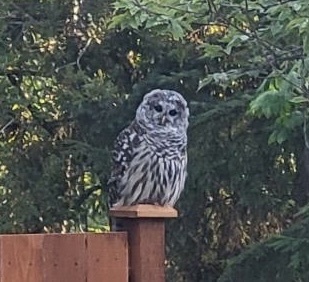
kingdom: Animalia
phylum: Chordata
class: Aves
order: Strigiformes
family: Strigidae
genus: Strix
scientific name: Strix varia
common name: Barred owl
